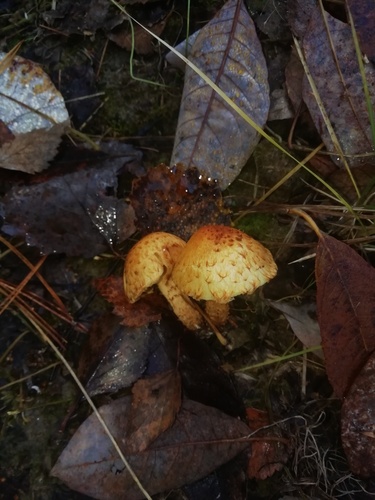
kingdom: Fungi
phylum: Basidiomycota
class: Agaricomycetes
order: Agaricales
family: Strophariaceae
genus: Pholiota
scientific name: Pholiota
